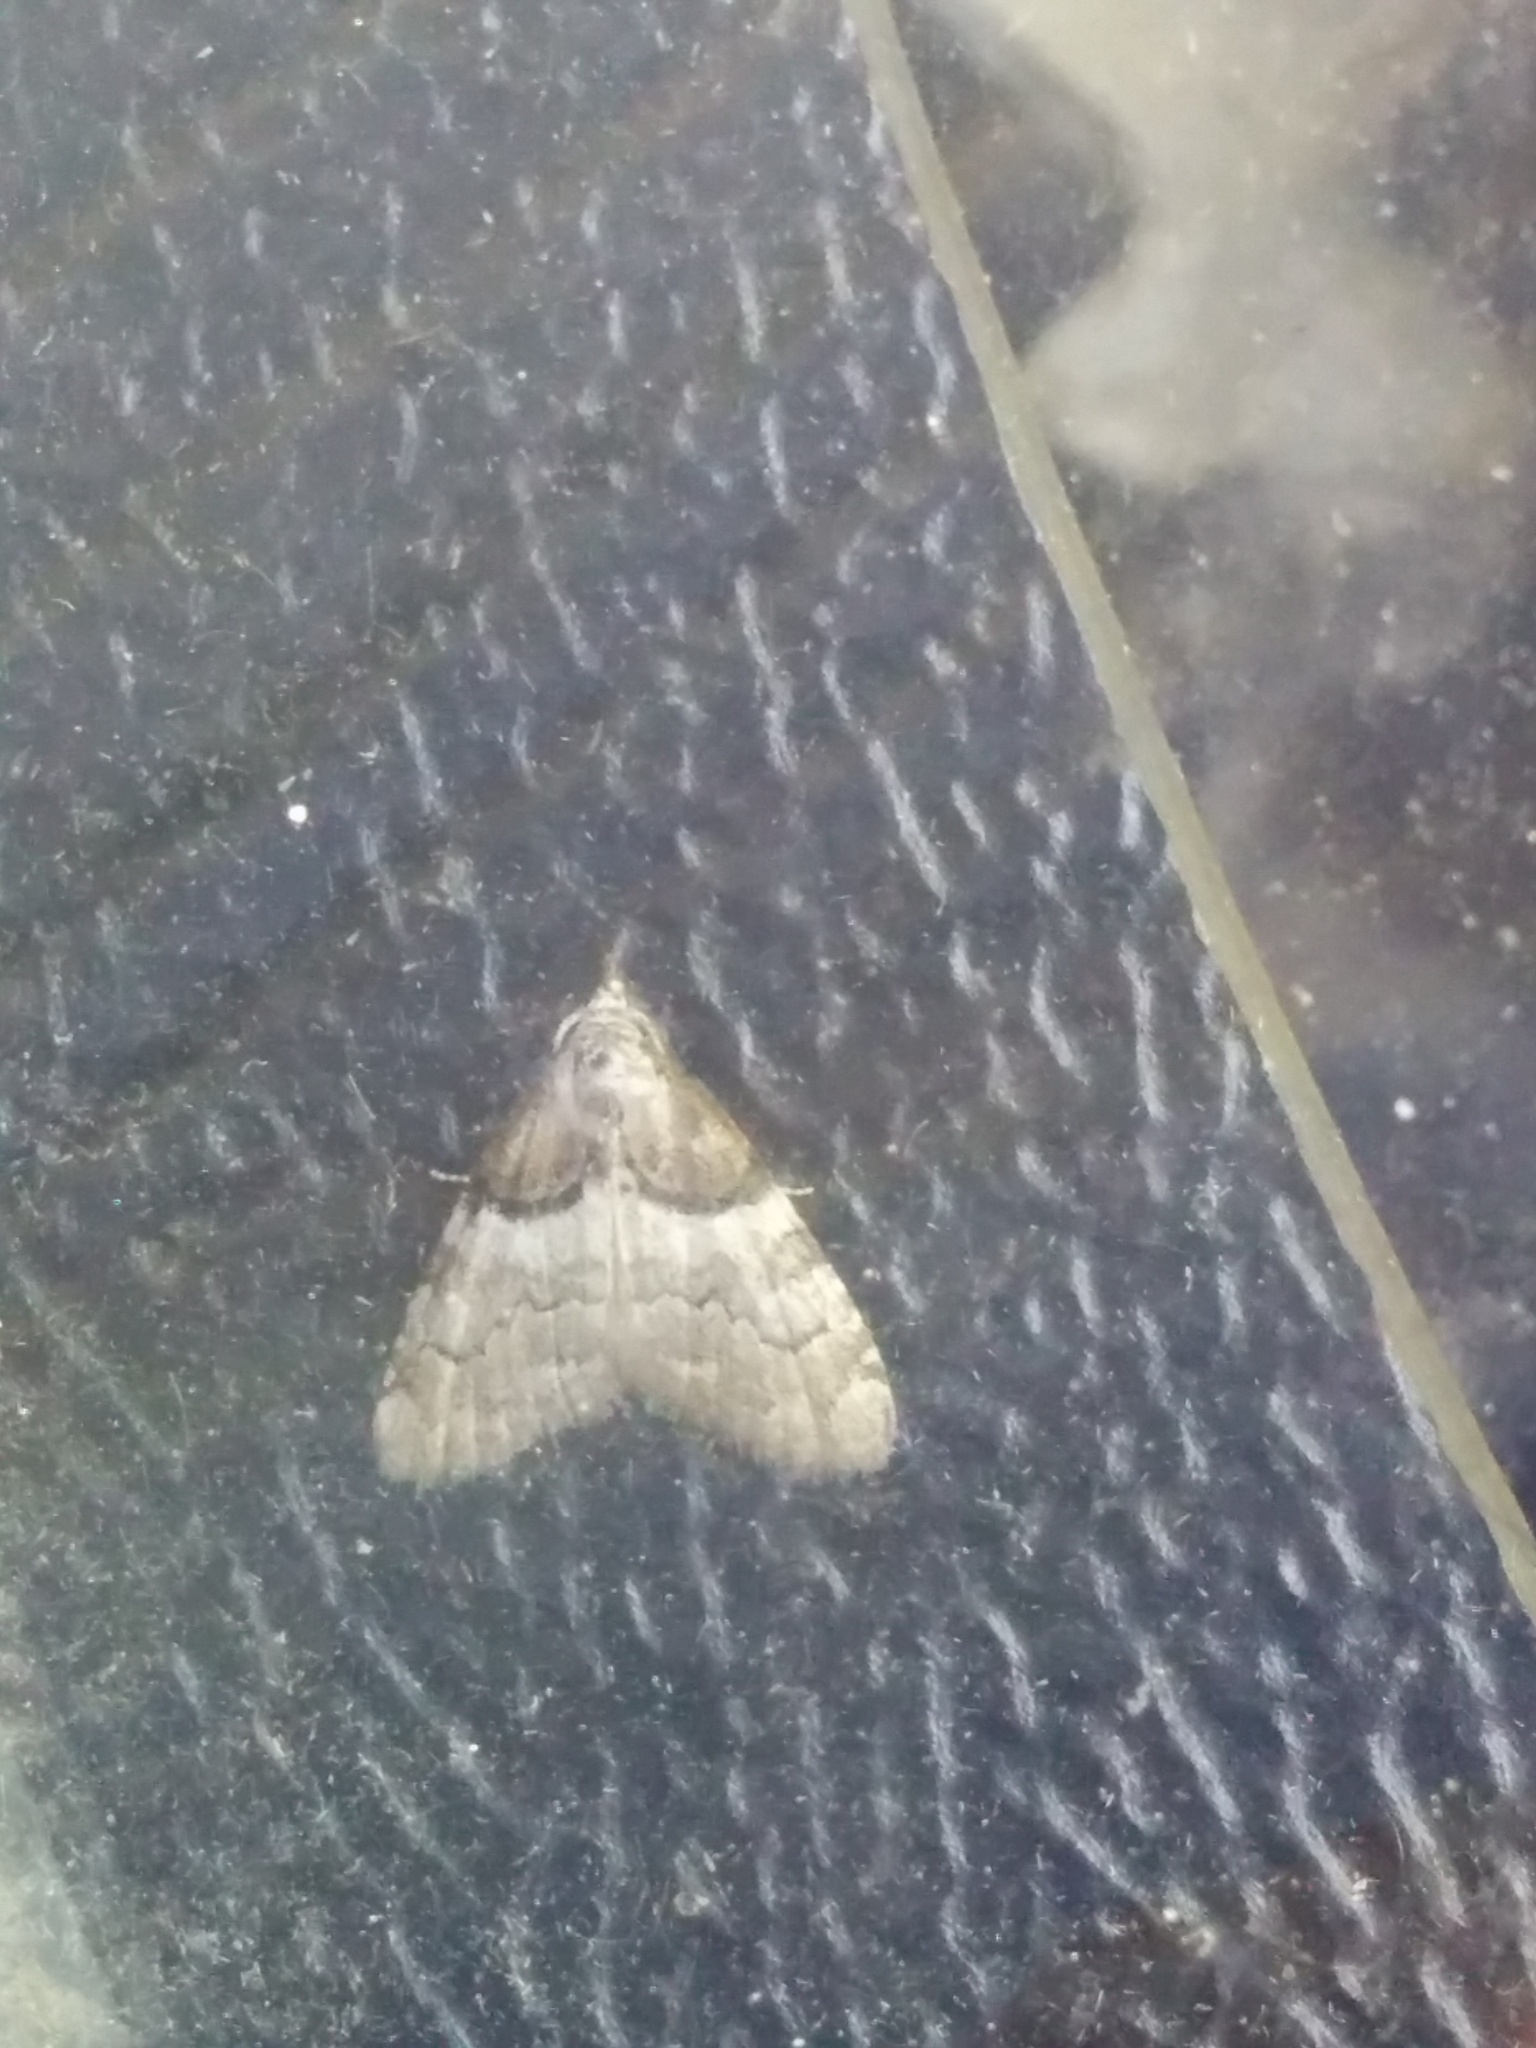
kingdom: Animalia
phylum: Arthropoda
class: Insecta
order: Lepidoptera
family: Nolidae
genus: Nola
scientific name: Nola cucullatella
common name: Short-cloaked moth
